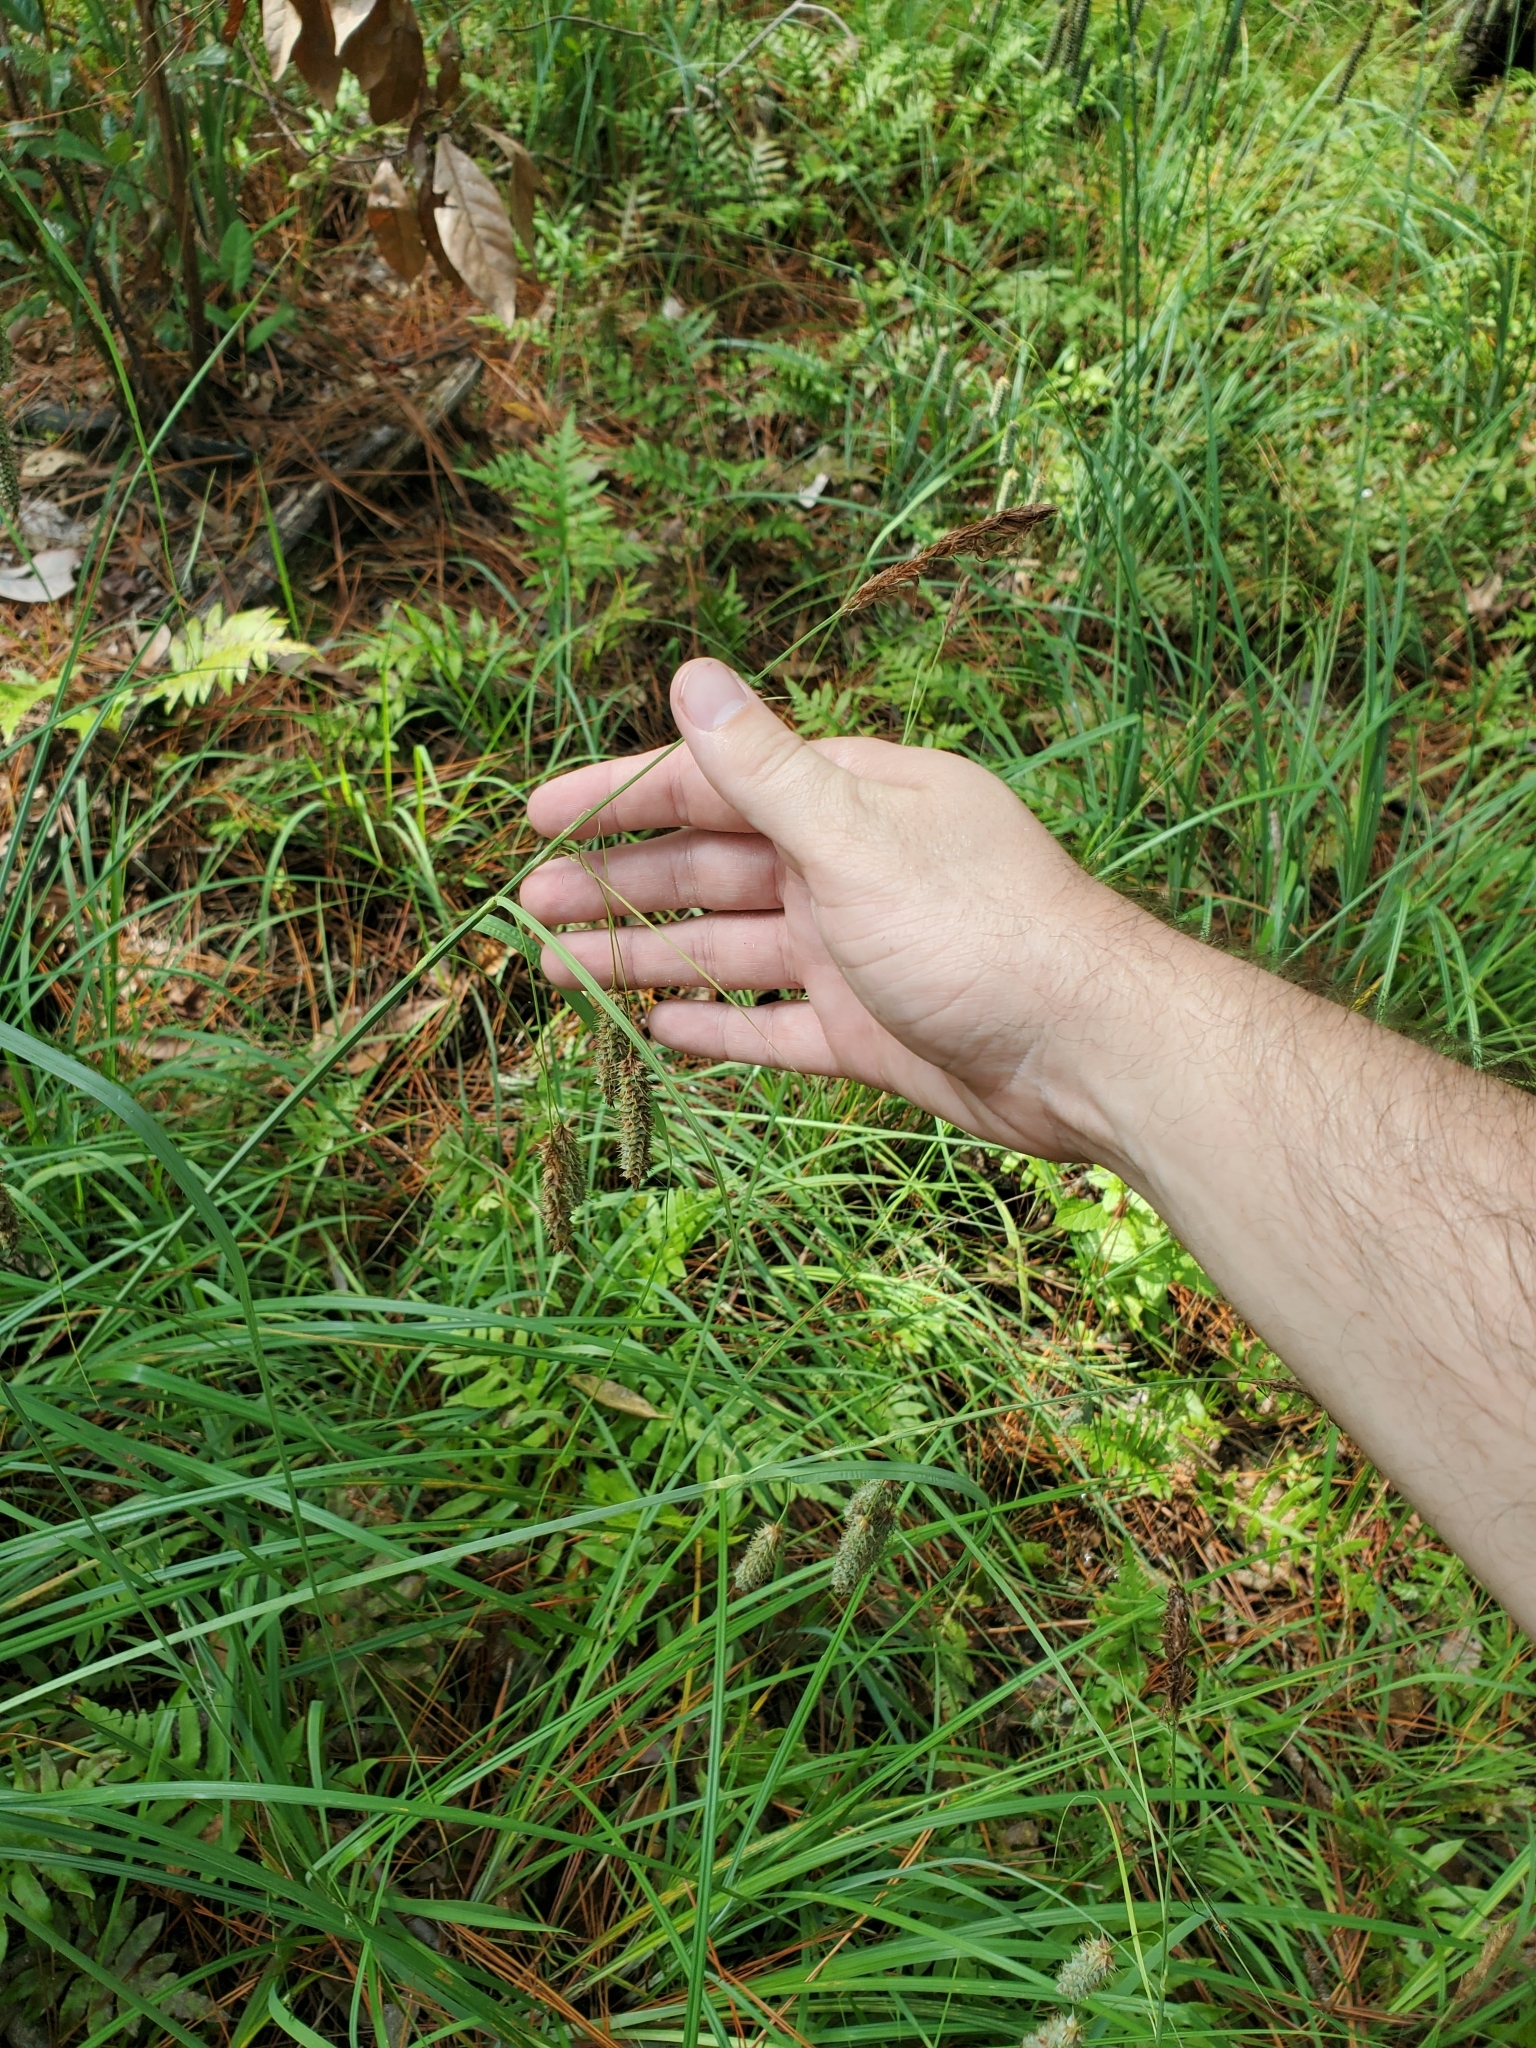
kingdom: Plantae
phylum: Tracheophyta
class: Liliopsida
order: Poales
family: Cyperaceae
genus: Carex
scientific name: Carex glaucescens
